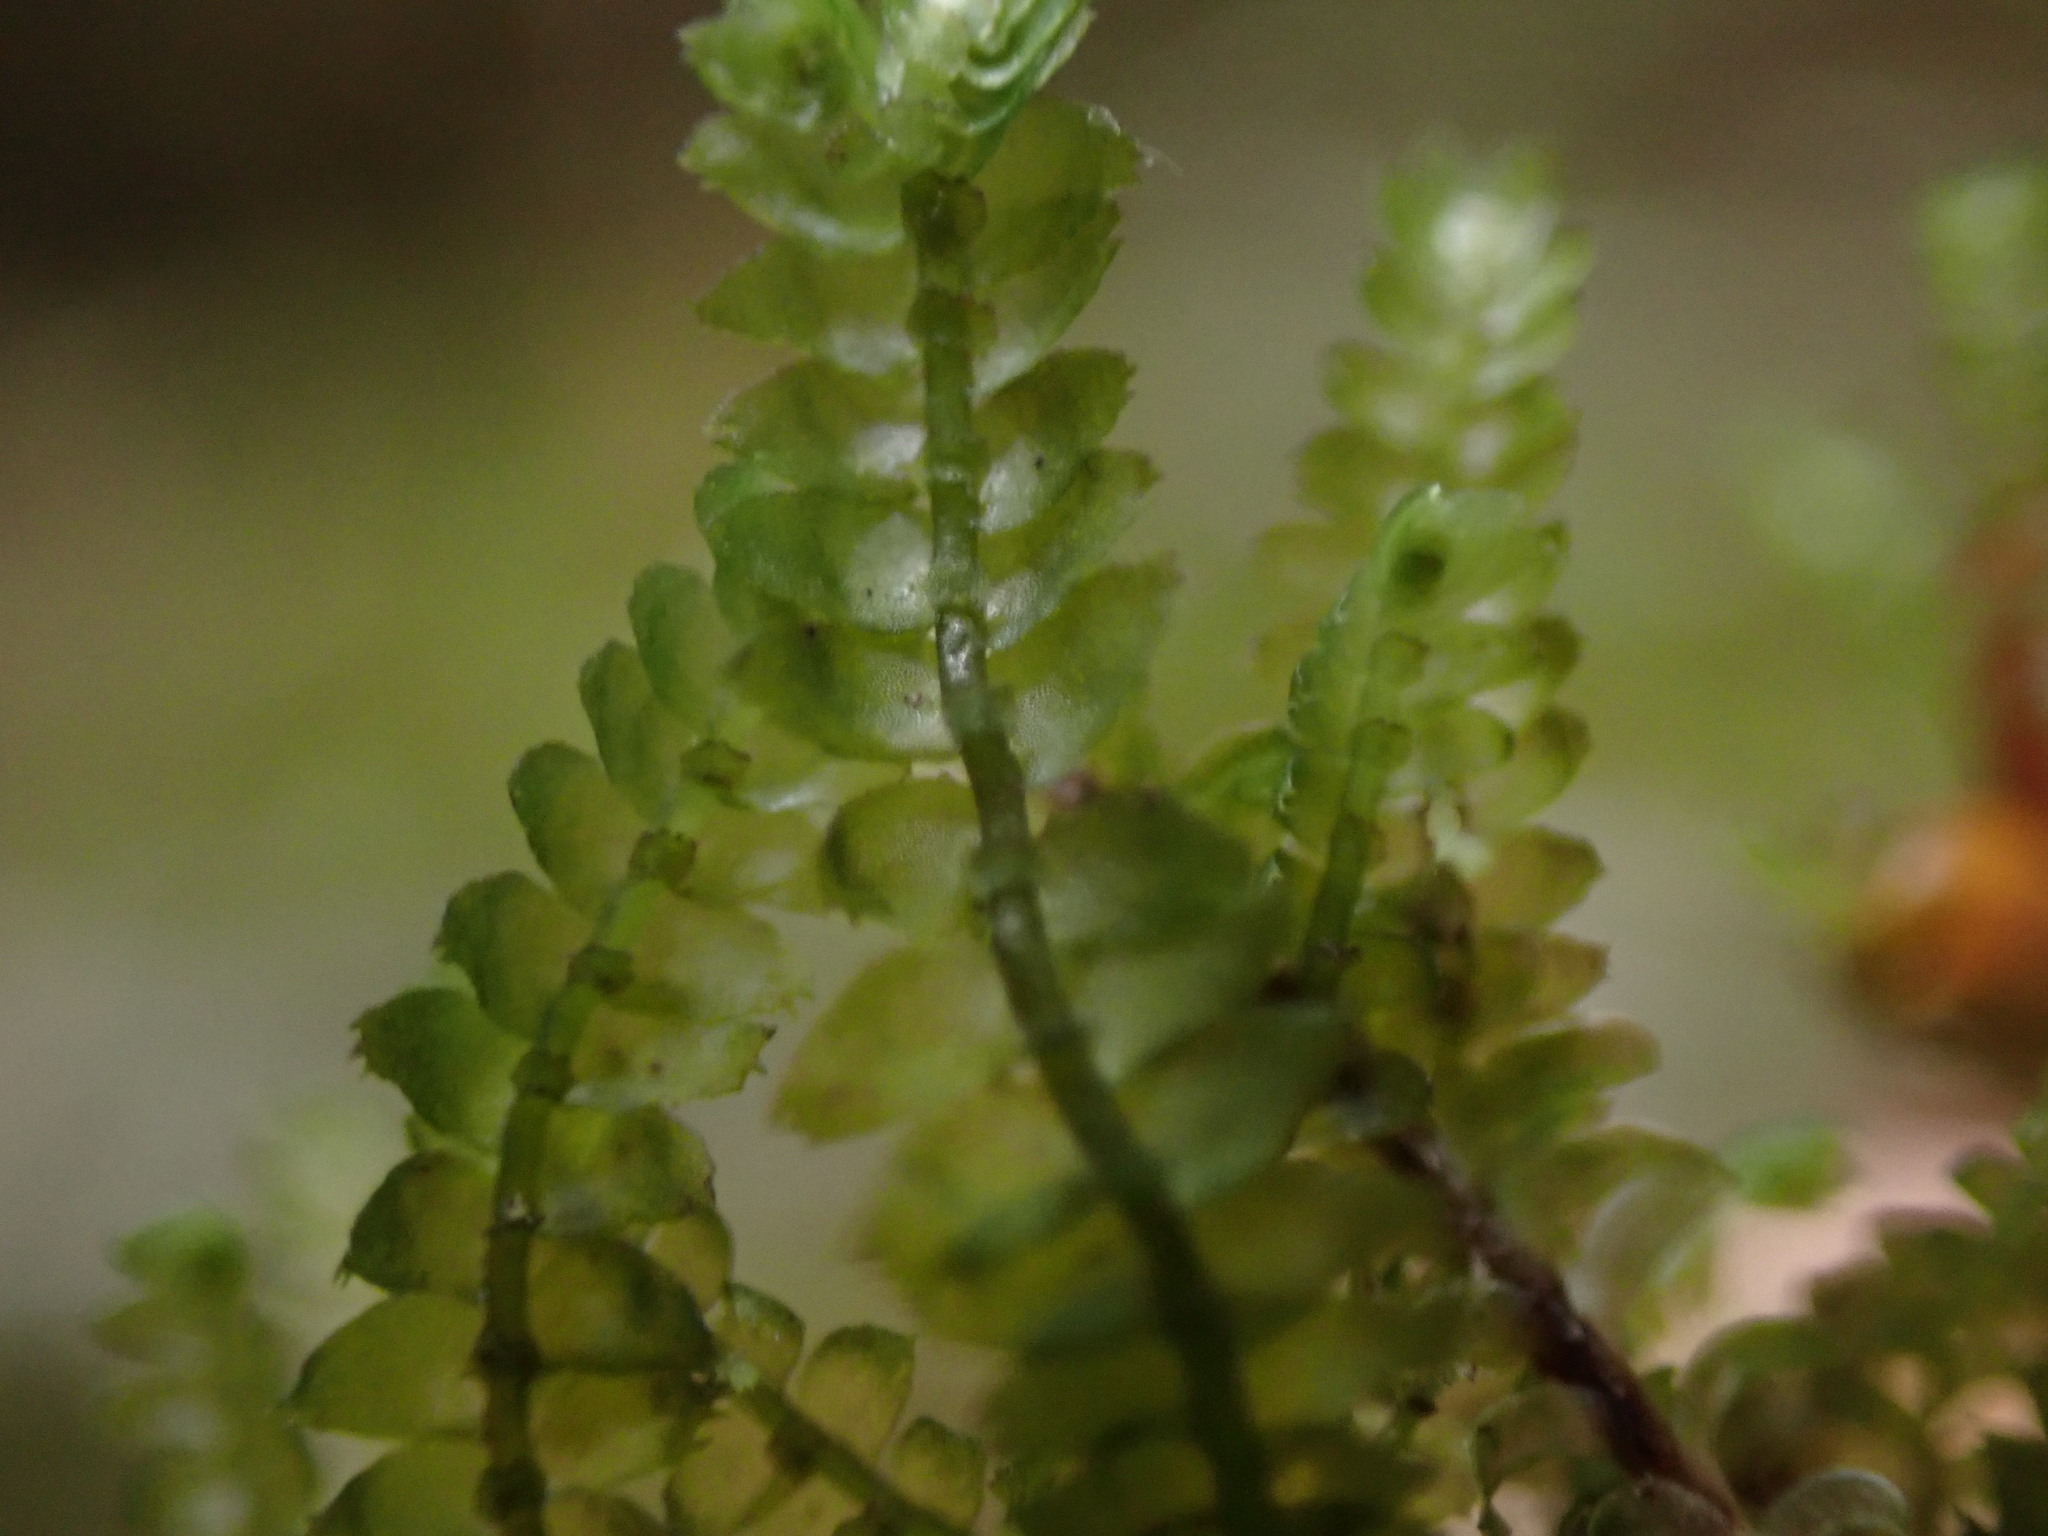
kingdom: Plantae
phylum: Marchantiophyta
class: Jungermanniopsida
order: Jungermanniales
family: Lepidoziaceae
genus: Bazzania
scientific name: Bazzania trilobata
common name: Three-lobed whipwort
